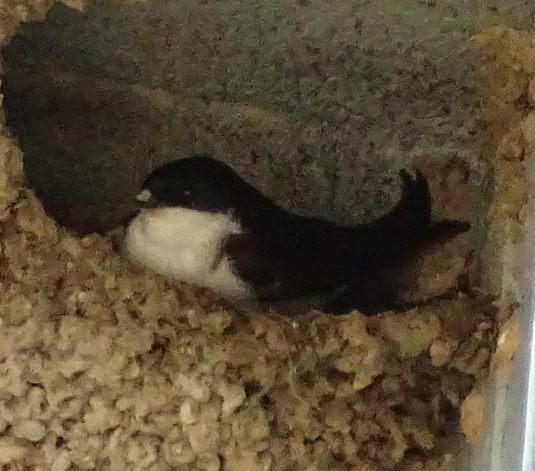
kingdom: Animalia
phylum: Chordata
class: Aves
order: Passeriformes
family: Hirundinidae
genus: Delichon
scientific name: Delichon urbicum
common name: Common house martin
